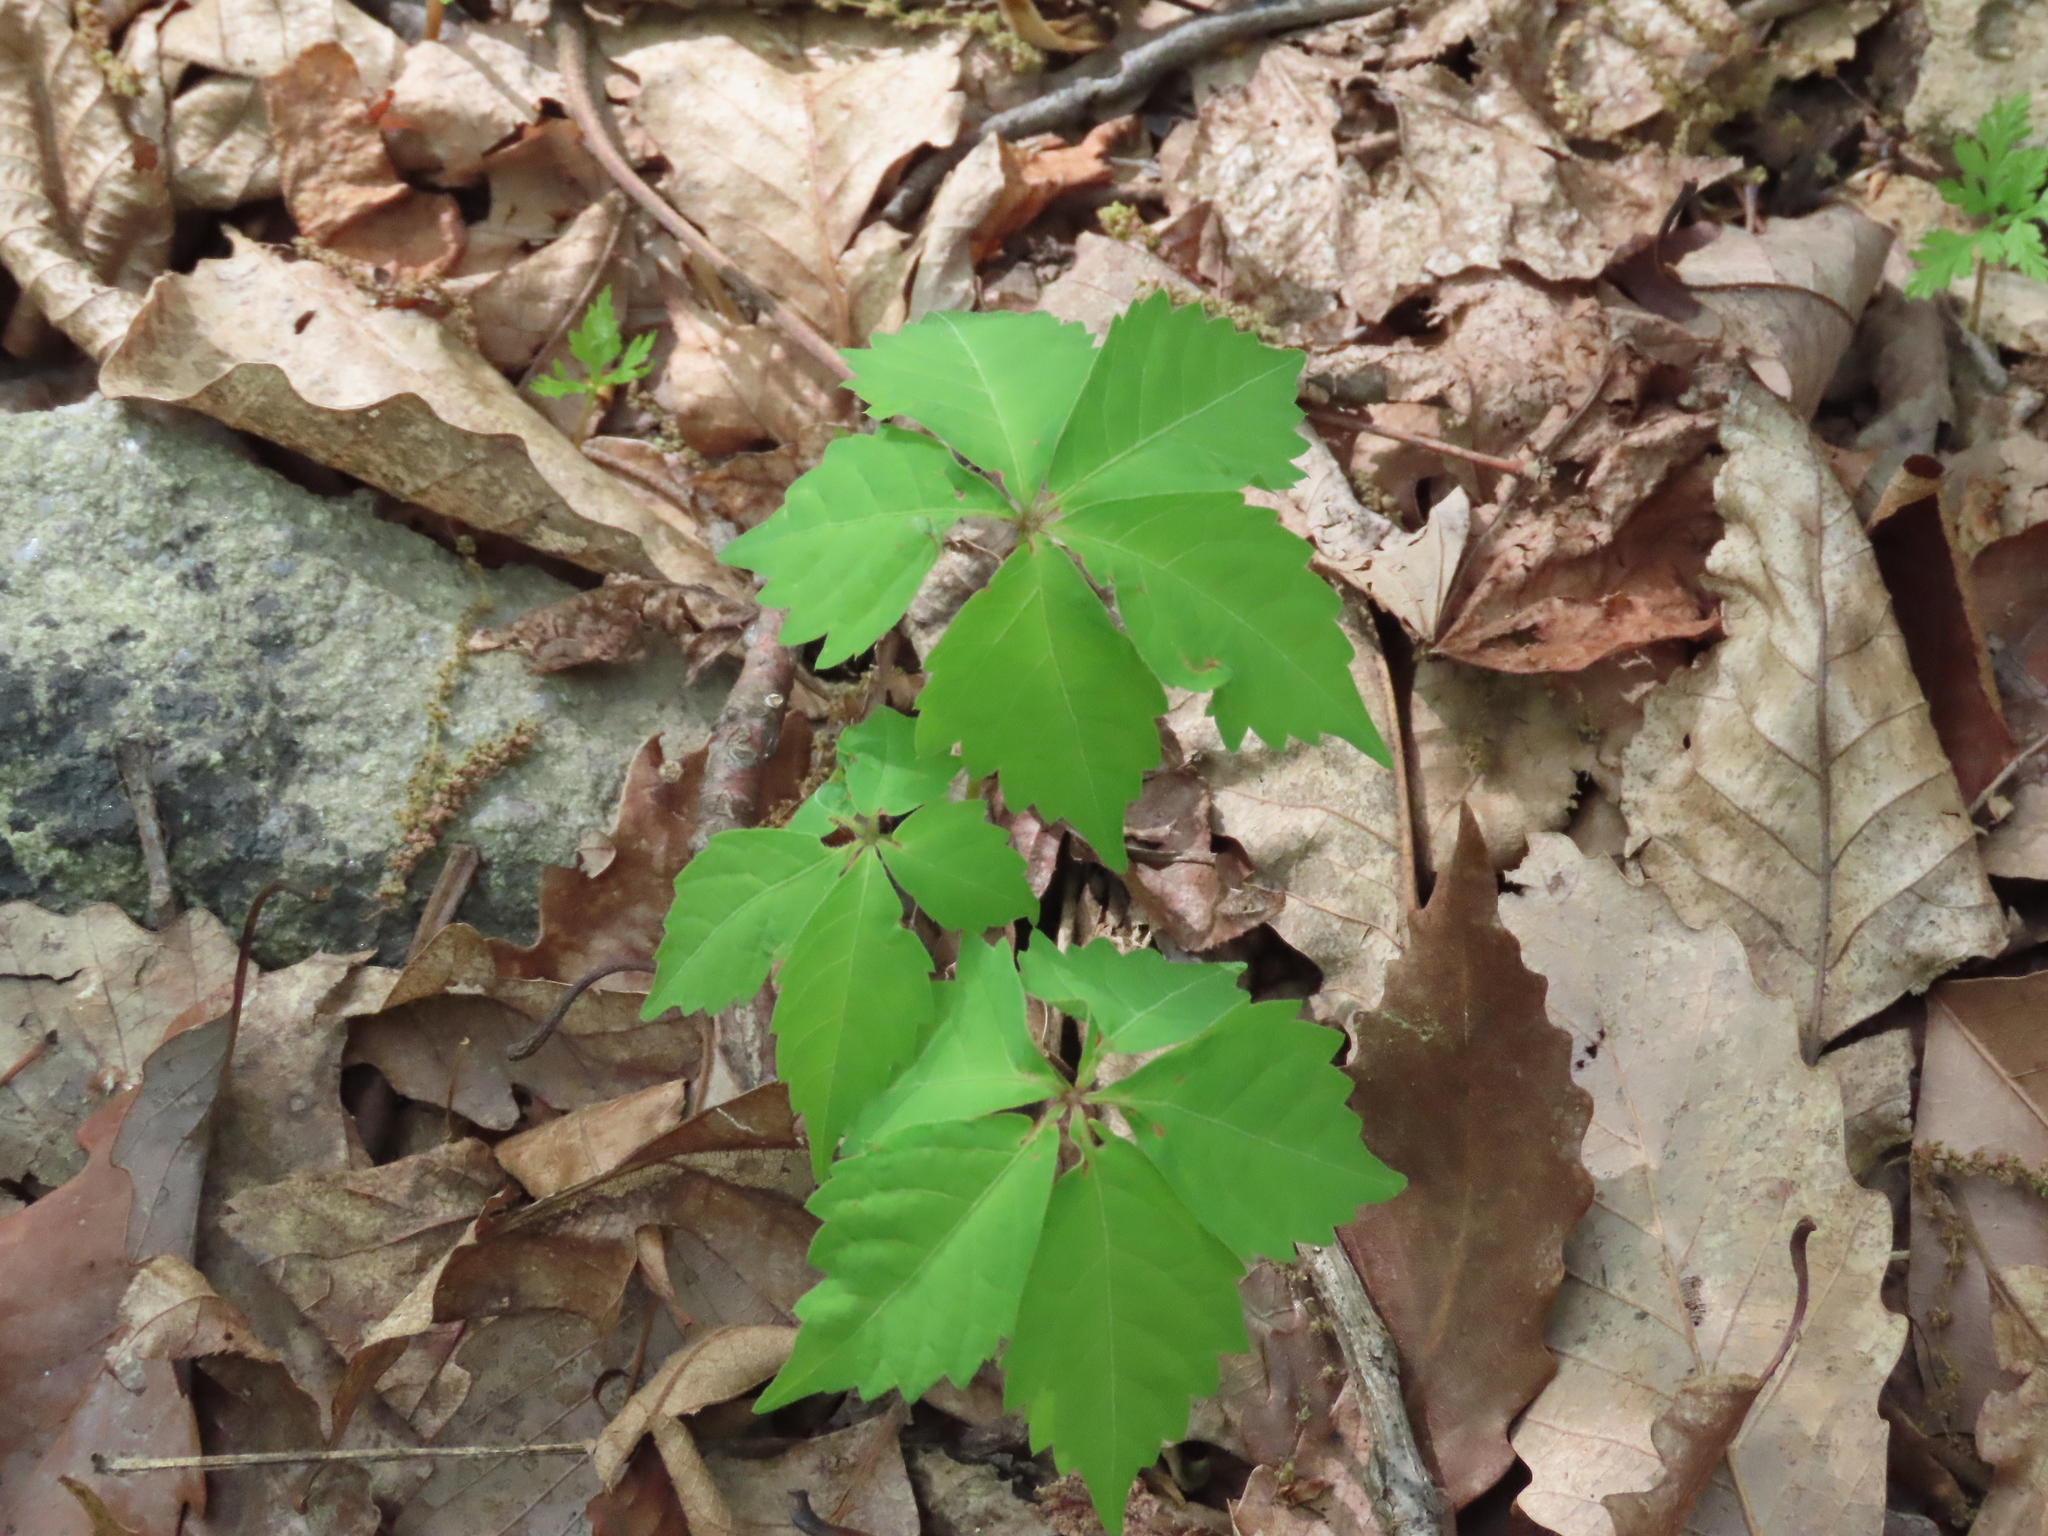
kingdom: Plantae
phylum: Tracheophyta
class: Magnoliopsida
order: Vitales
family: Vitaceae
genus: Parthenocissus
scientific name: Parthenocissus quinquefolia
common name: Virginia-creeper
